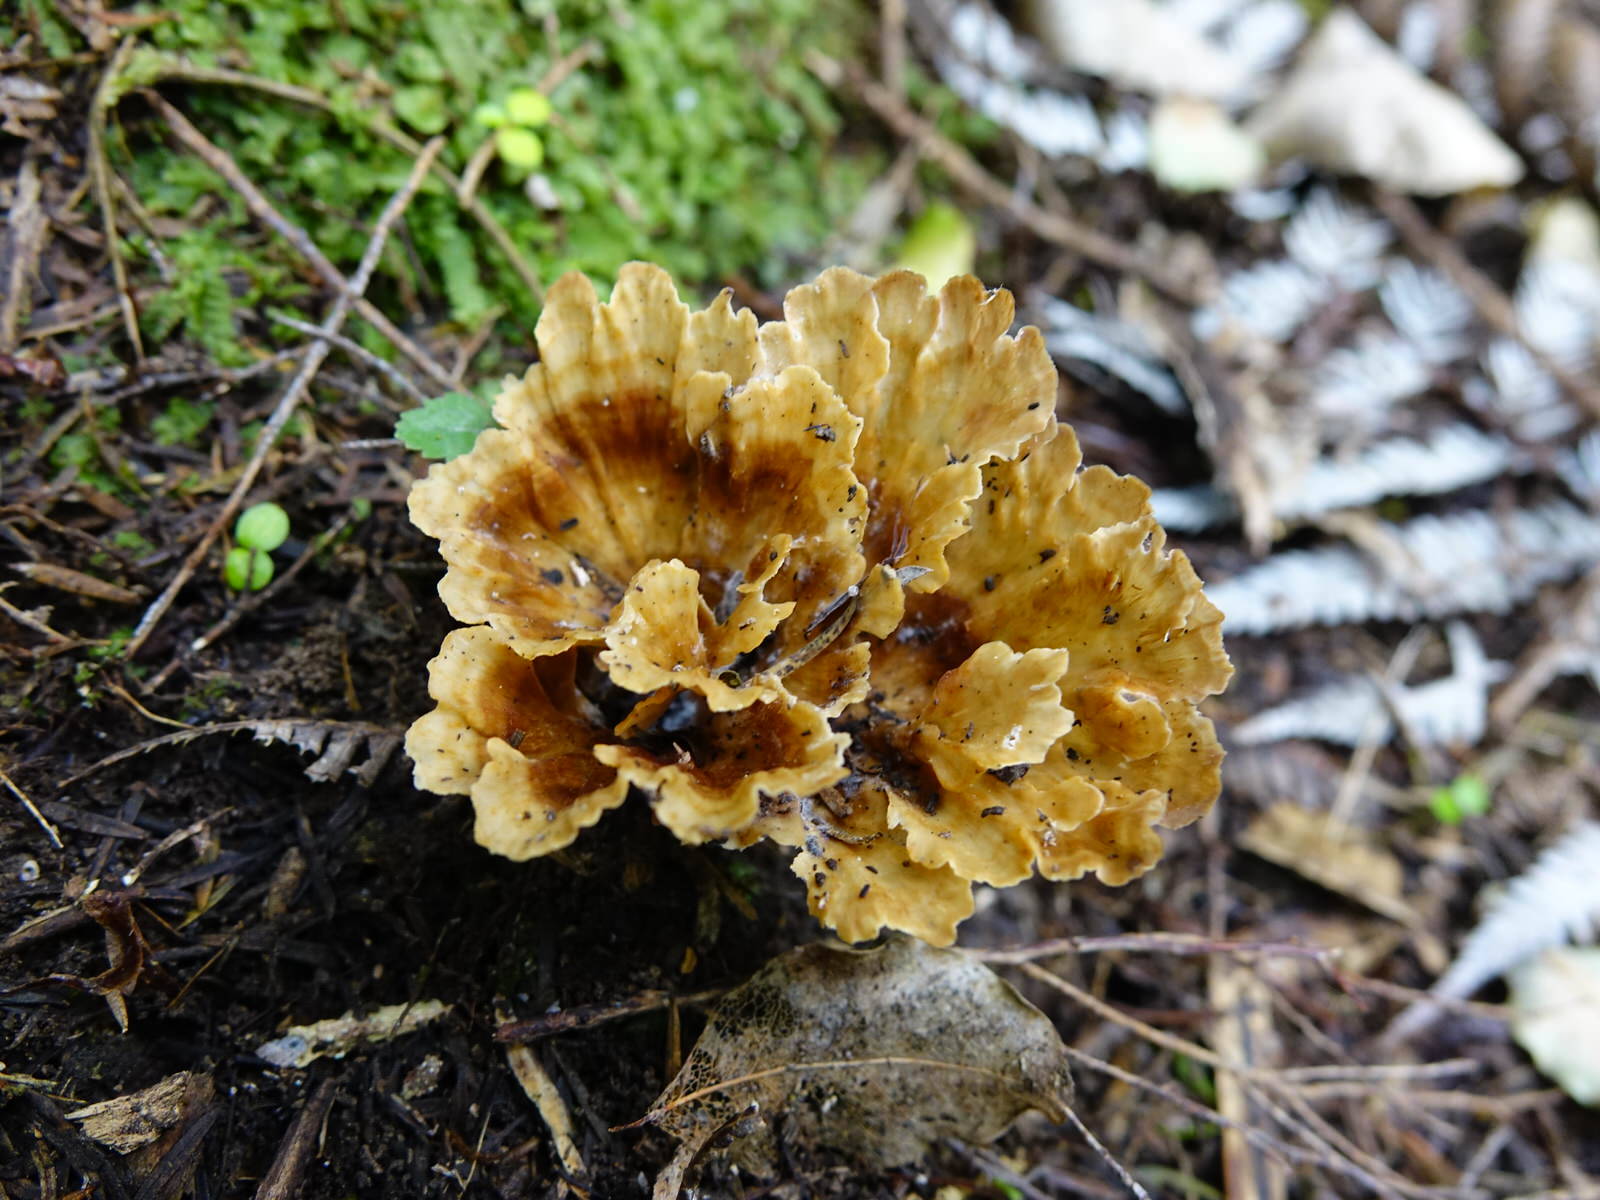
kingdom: Fungi
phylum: Basidiomycota
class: Agaricomycetes
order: Polyporales
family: Podoscyphaceae
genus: Podoscypha
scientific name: Podoscypha petalodes
